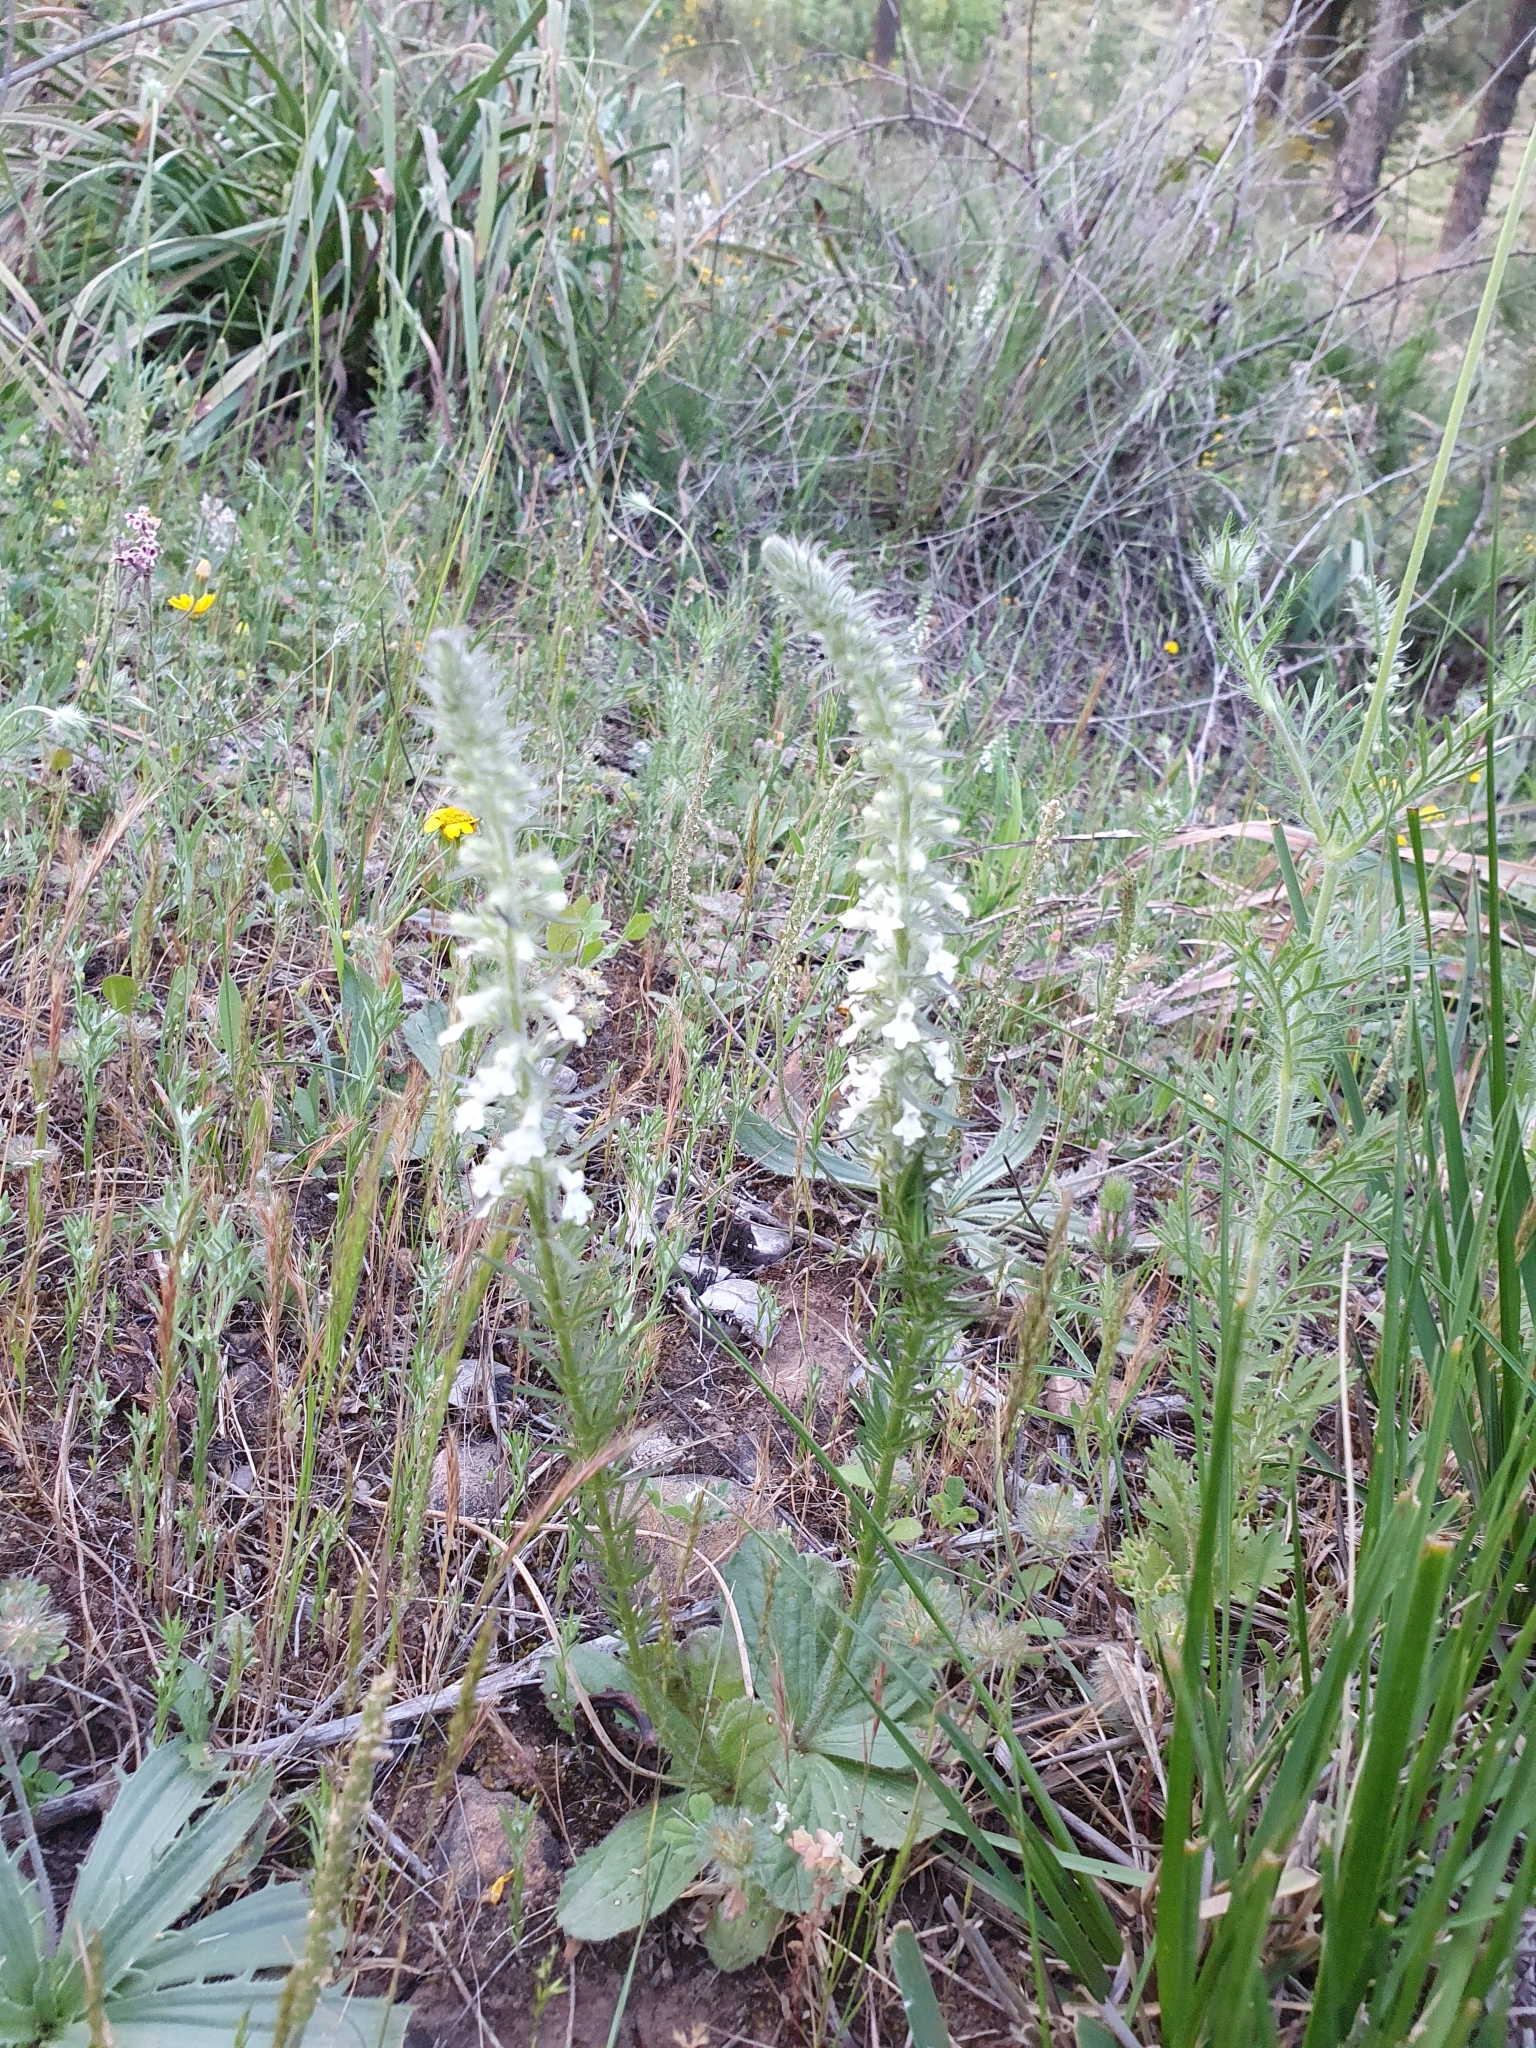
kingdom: Plantae
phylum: Tracheophyta
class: Magnoliopsida
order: Lamiales
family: Plantaginaceae
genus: Anarrhinum
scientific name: Anarrhinum pedatum
